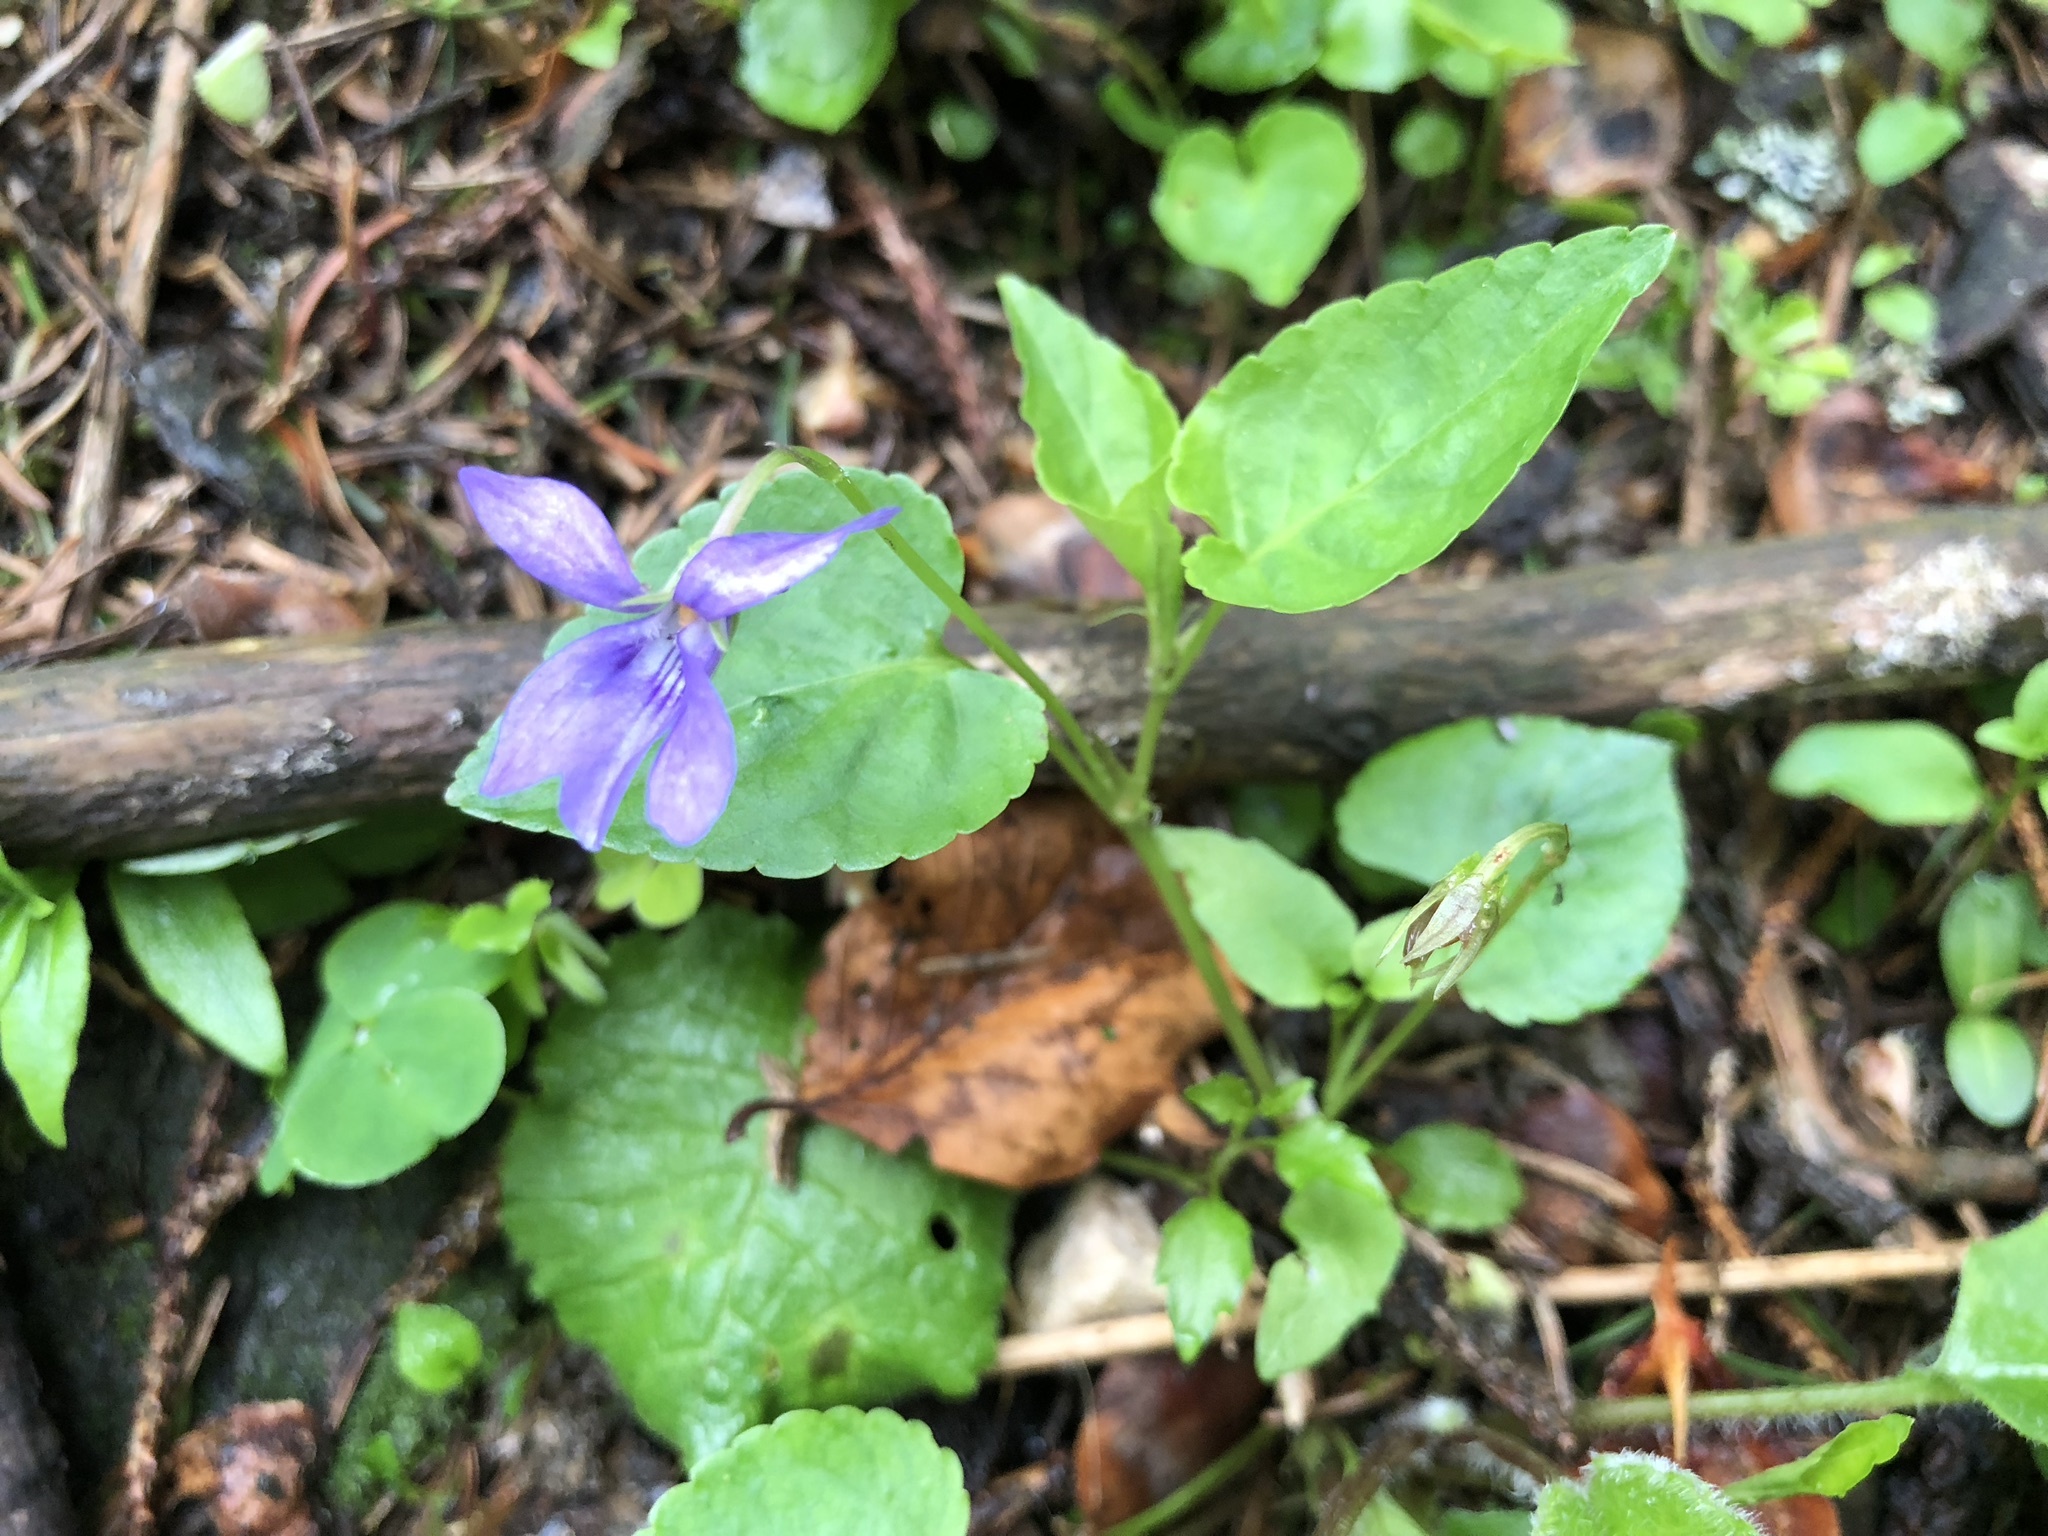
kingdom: Plantae
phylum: Tracheophyta
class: Magnoliopsida
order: Malpighiales
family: Violaceae
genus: Viola
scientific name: Viola reichenbachiana
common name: Early dog-violet
